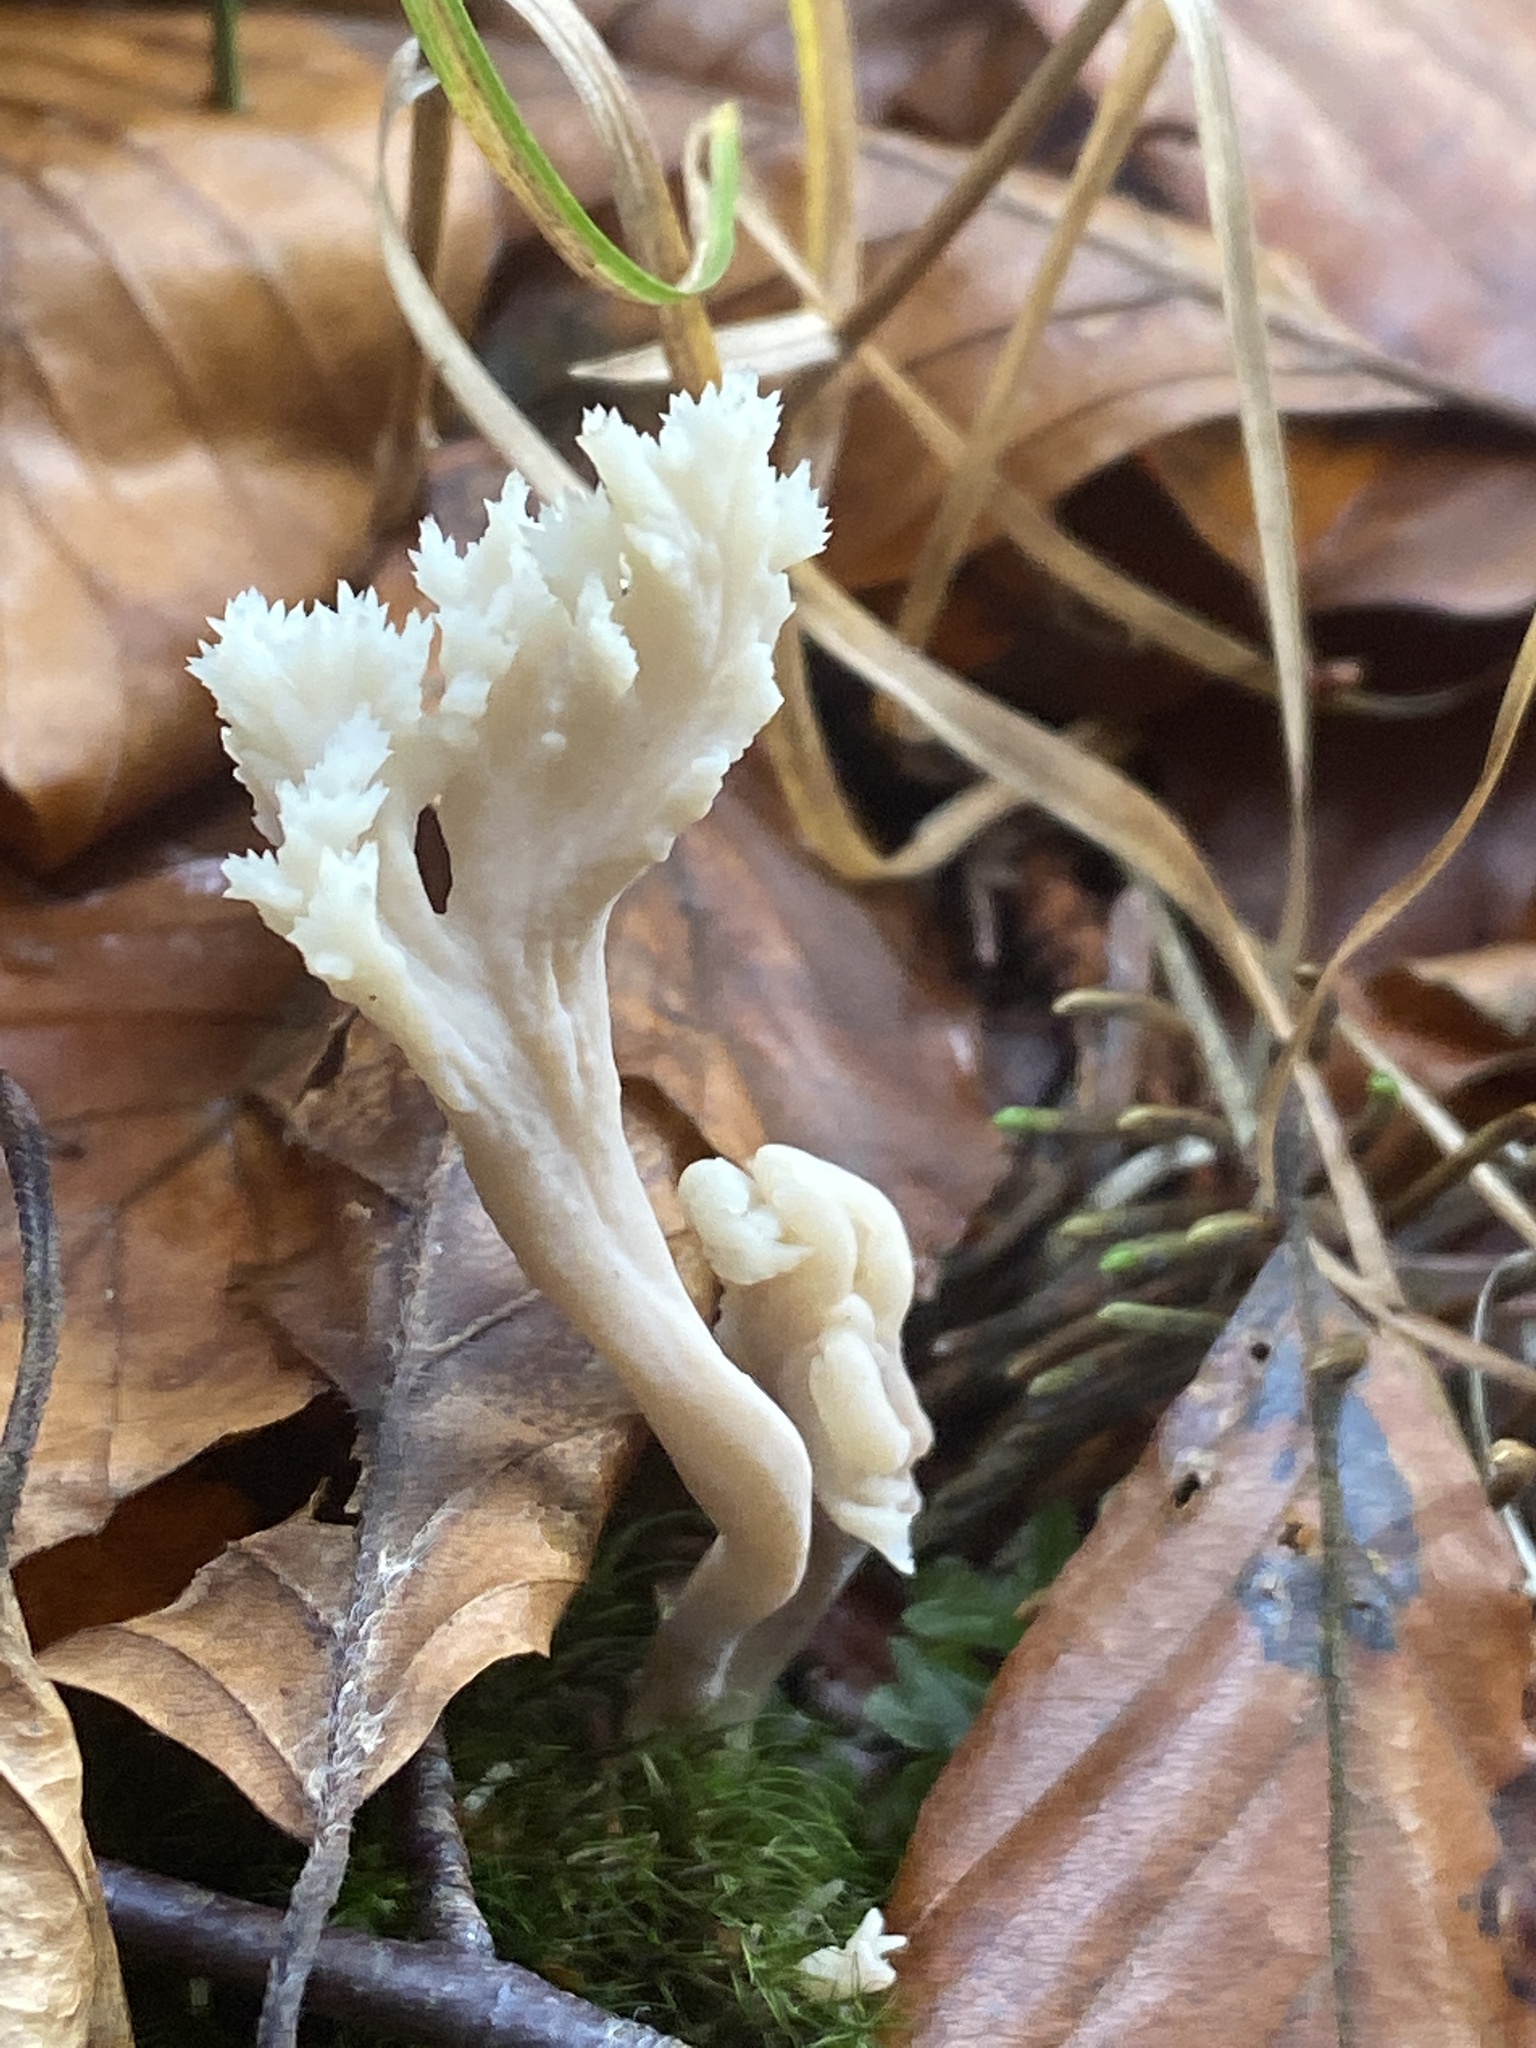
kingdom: Fungi
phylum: Basidiomycota
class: Agaricomycetes
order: Cantharellales
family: Hydnaceae
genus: Clavulina
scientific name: Clavulina coralloides
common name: Crested coral
